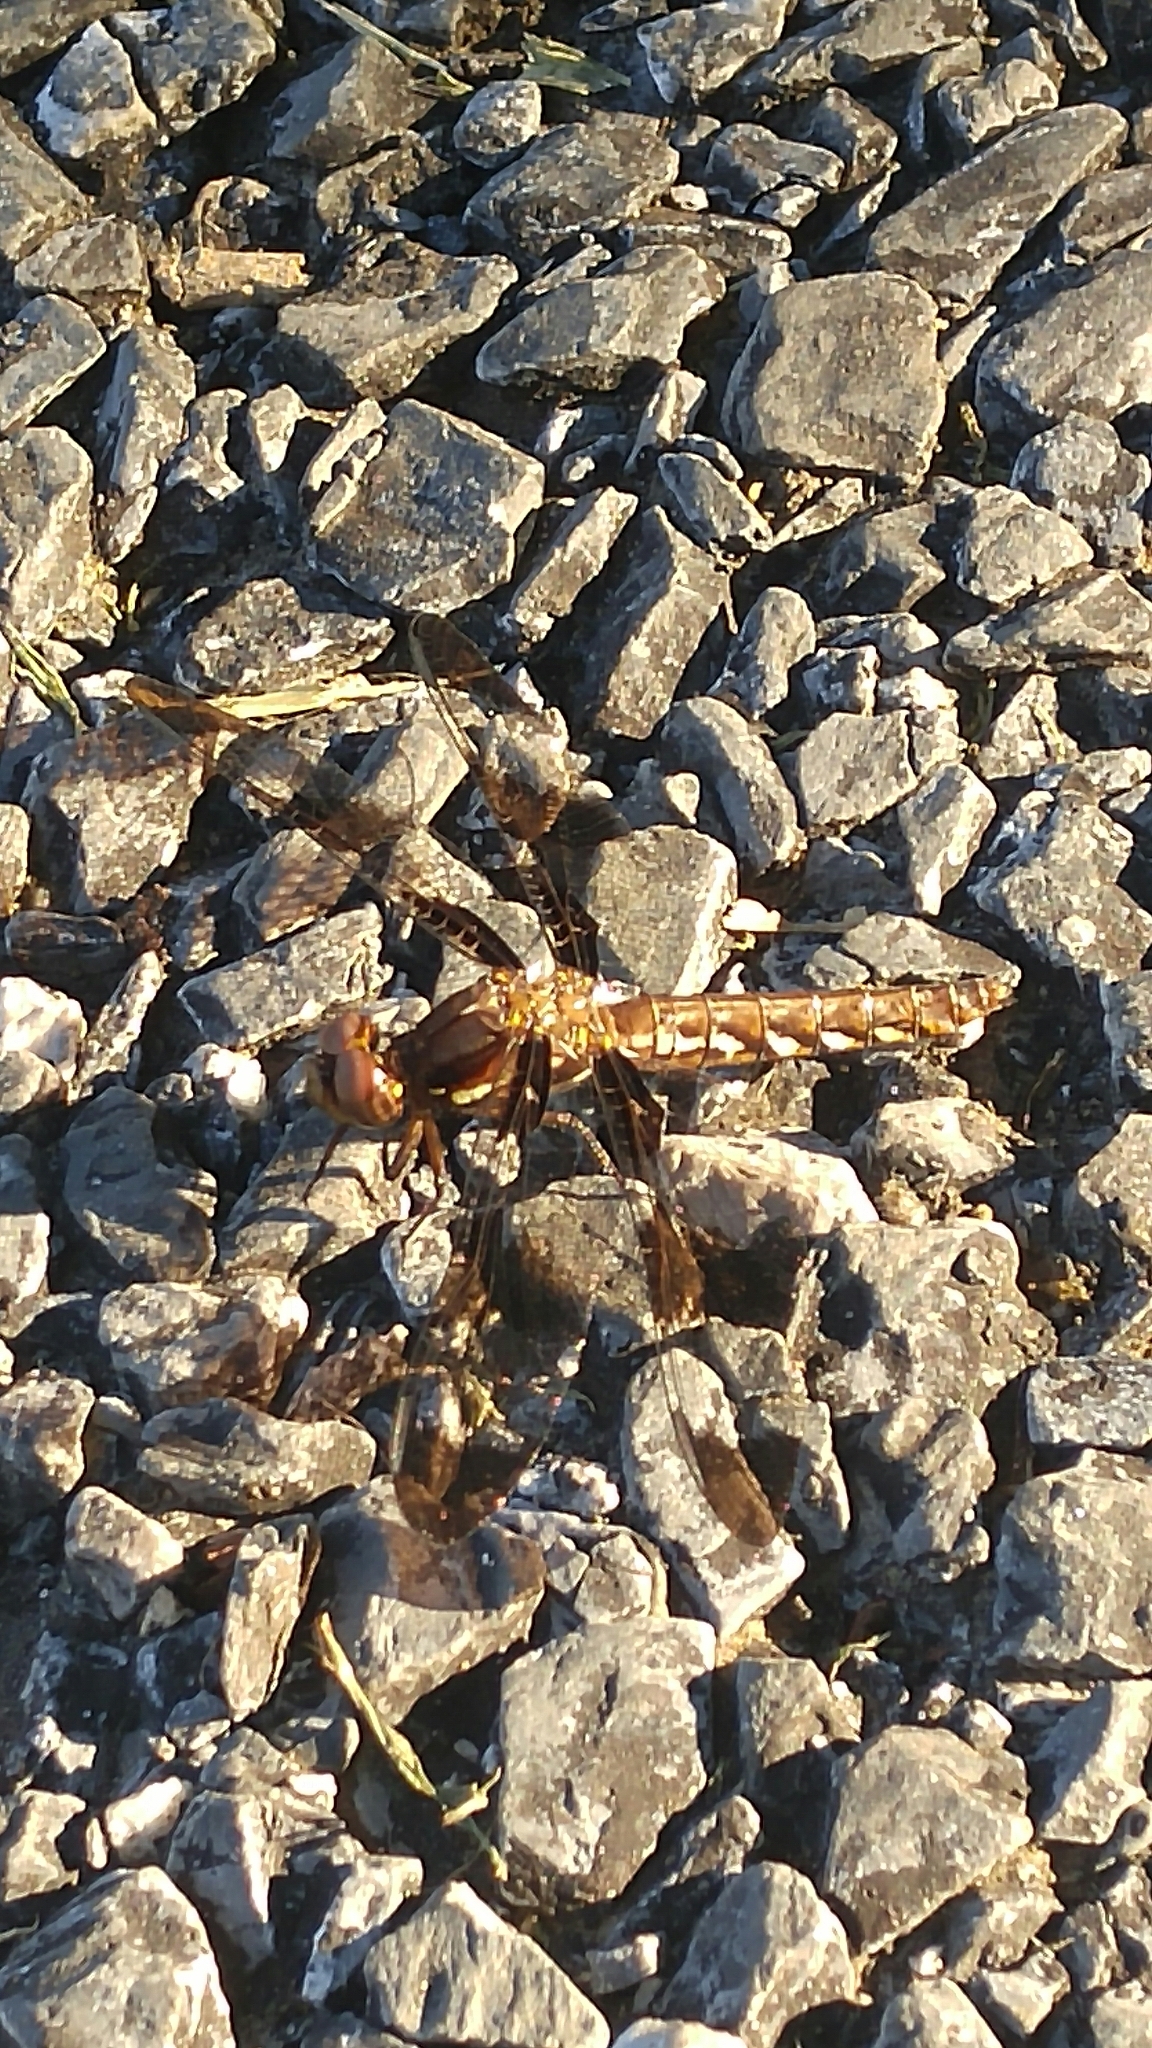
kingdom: Animalia
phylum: Arthropoda
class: Insecta
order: Odonata
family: Libellulidae
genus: Plathemis
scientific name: Plathemis lydia
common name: Common whitetail
